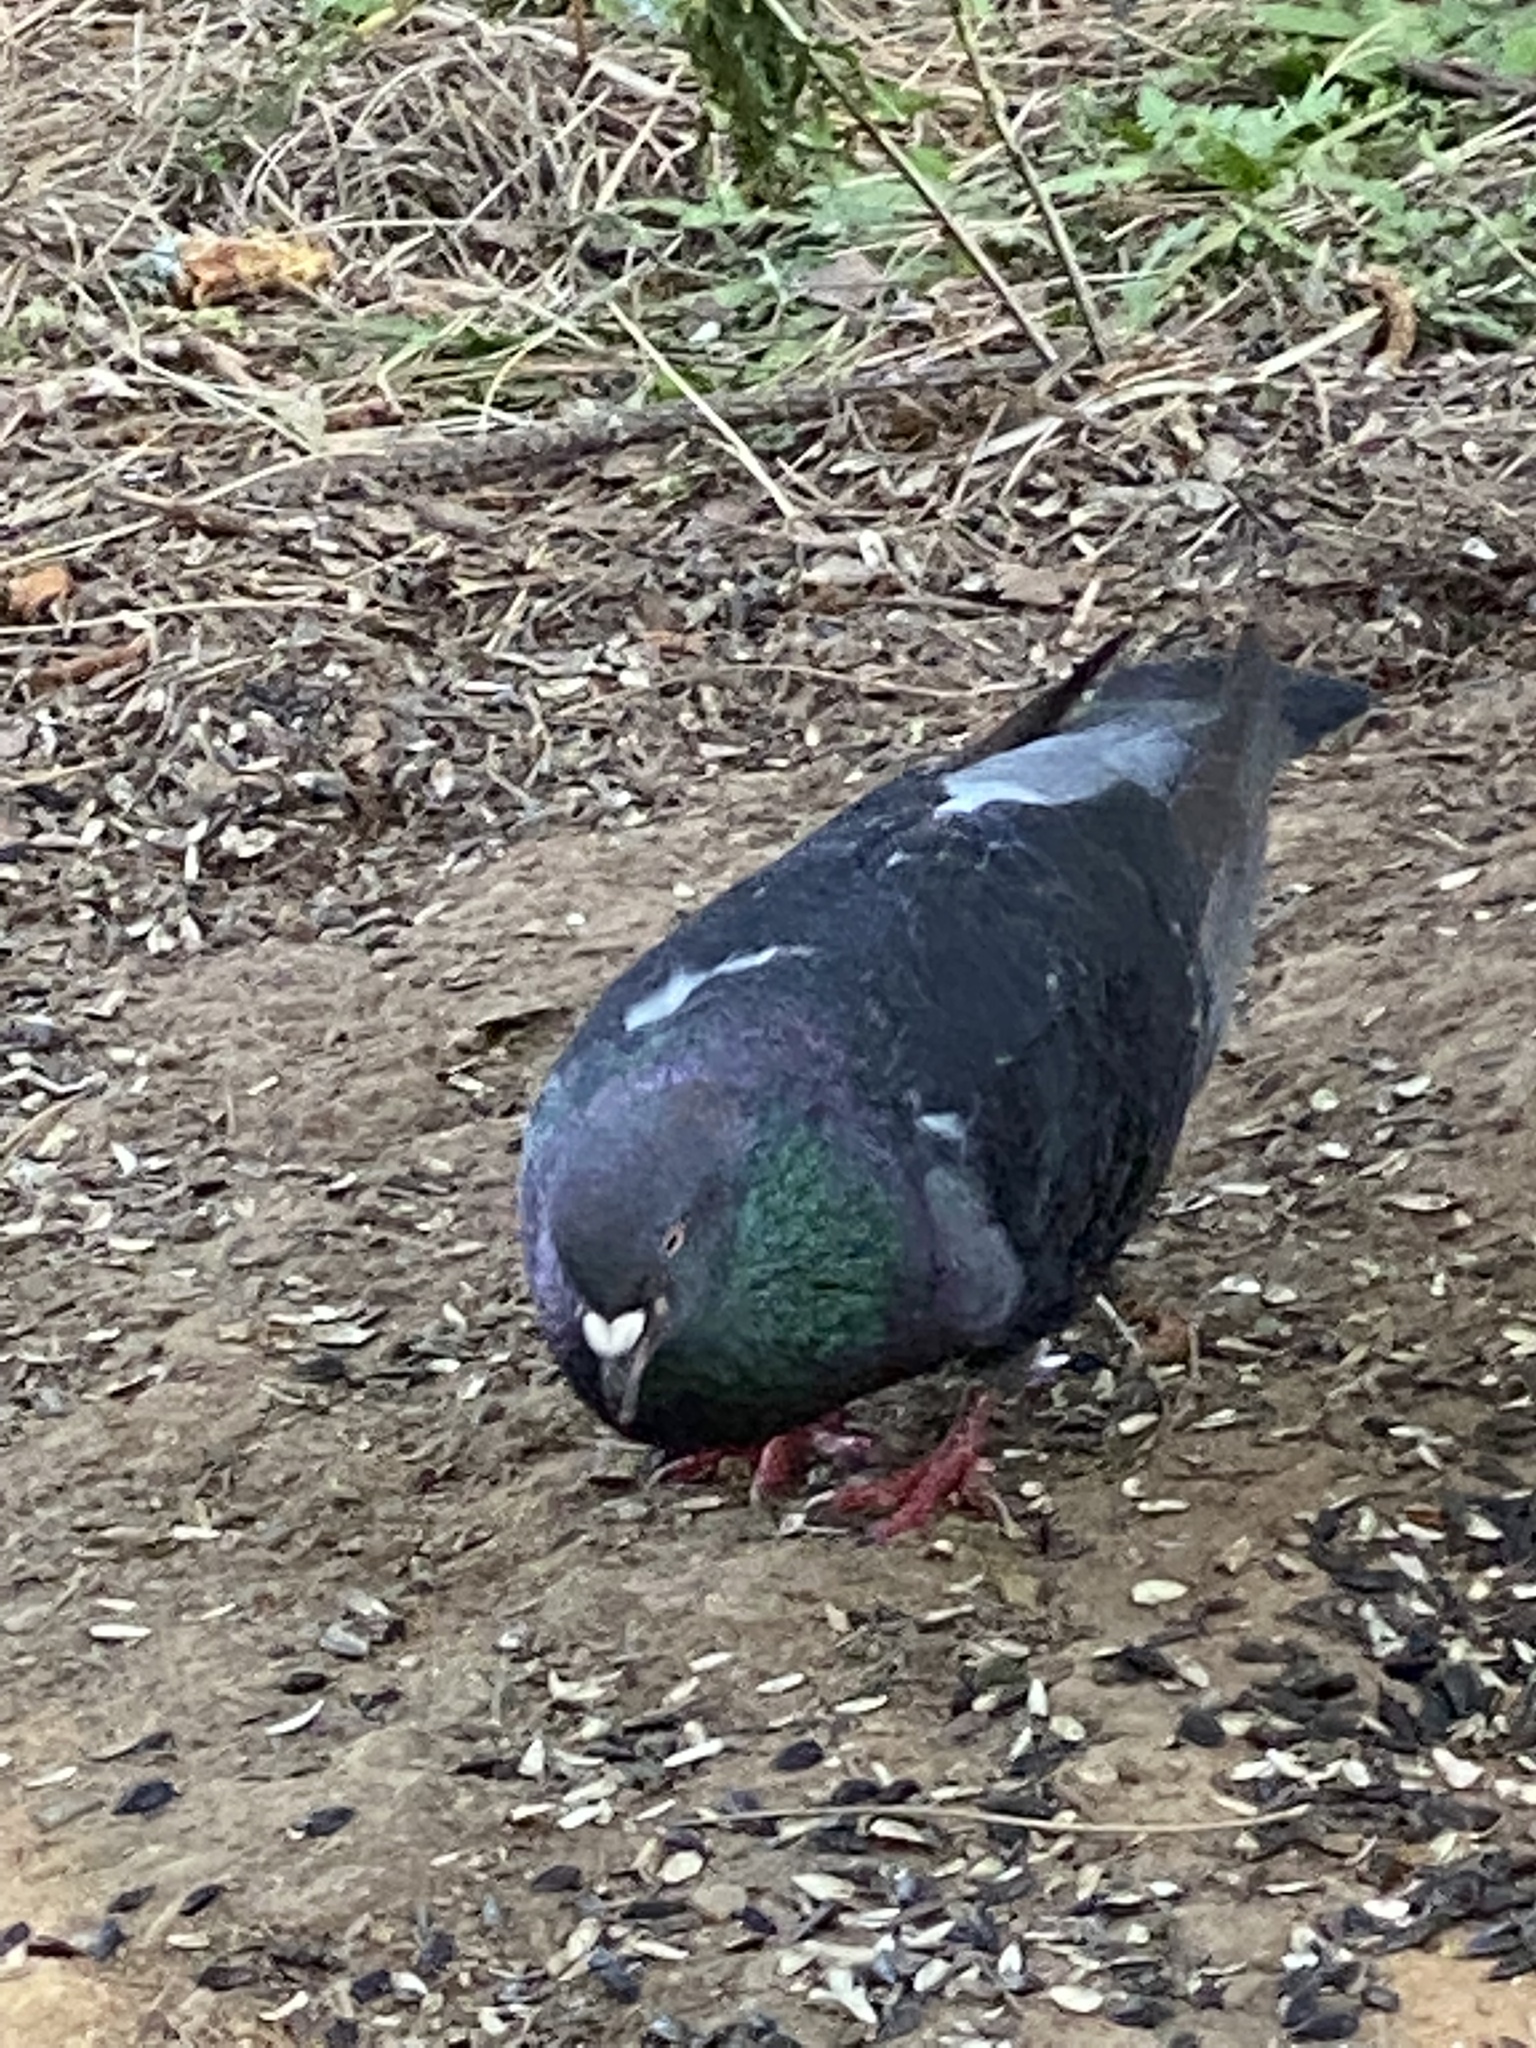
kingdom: Animalia
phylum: Chordata
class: Aves
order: Columbiformes
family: Columbidae
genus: Columba
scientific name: Columba livia
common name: Rock pigeon
